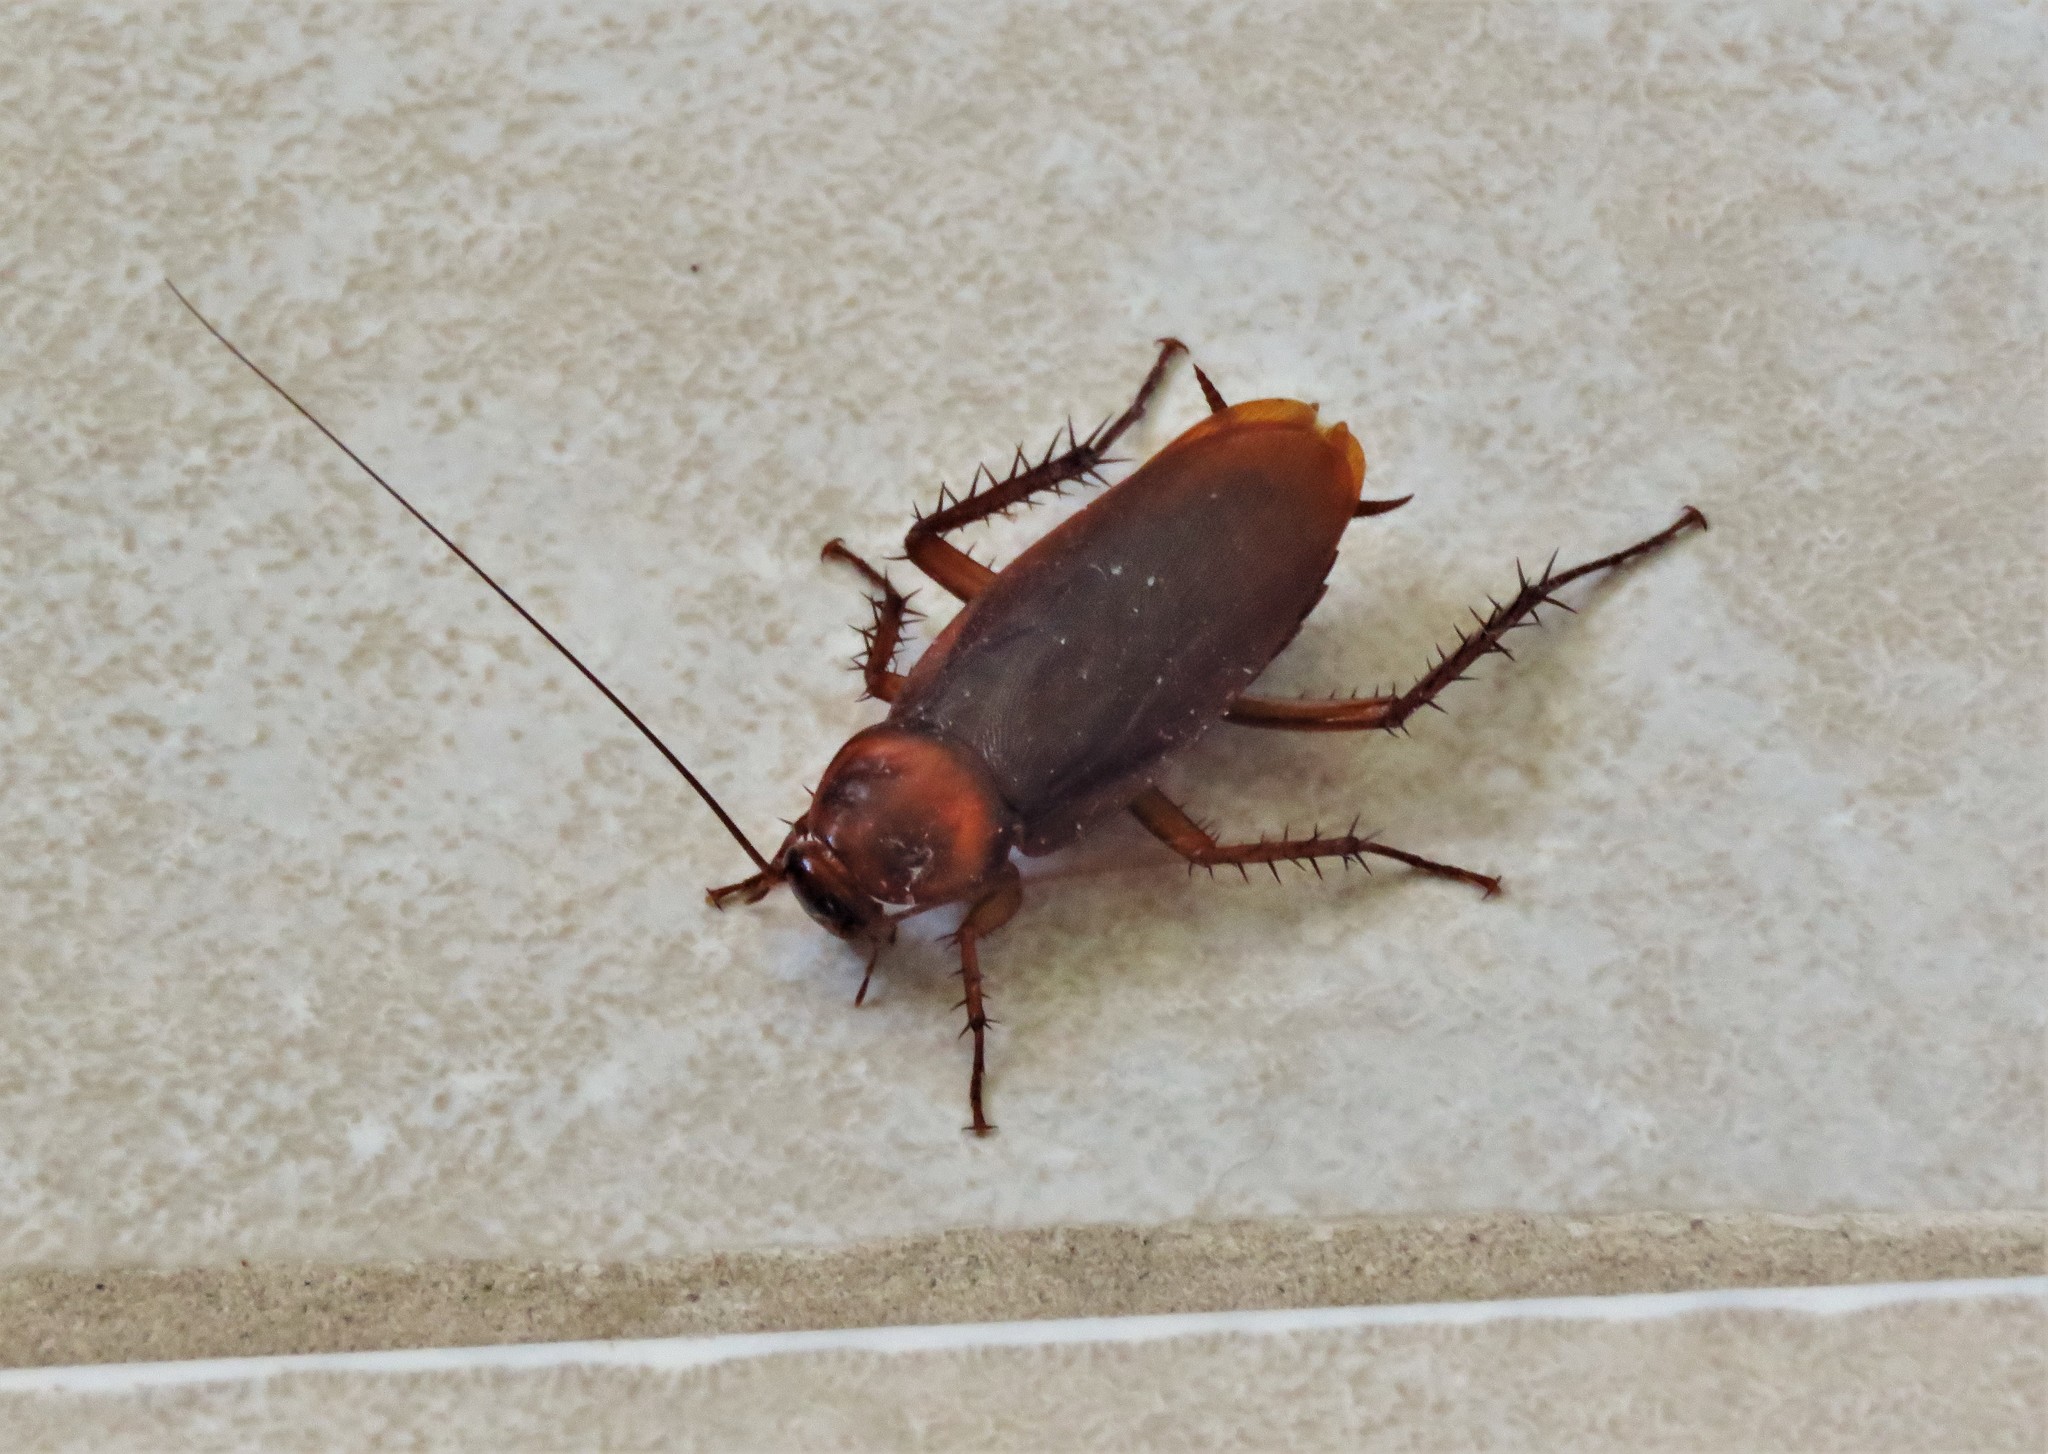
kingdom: Animalia
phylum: Arthropoda
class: Insecta
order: Blattodea
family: Blattidae
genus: Periplaneta
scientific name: Periplaneta brunnea
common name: Brown cockroach
